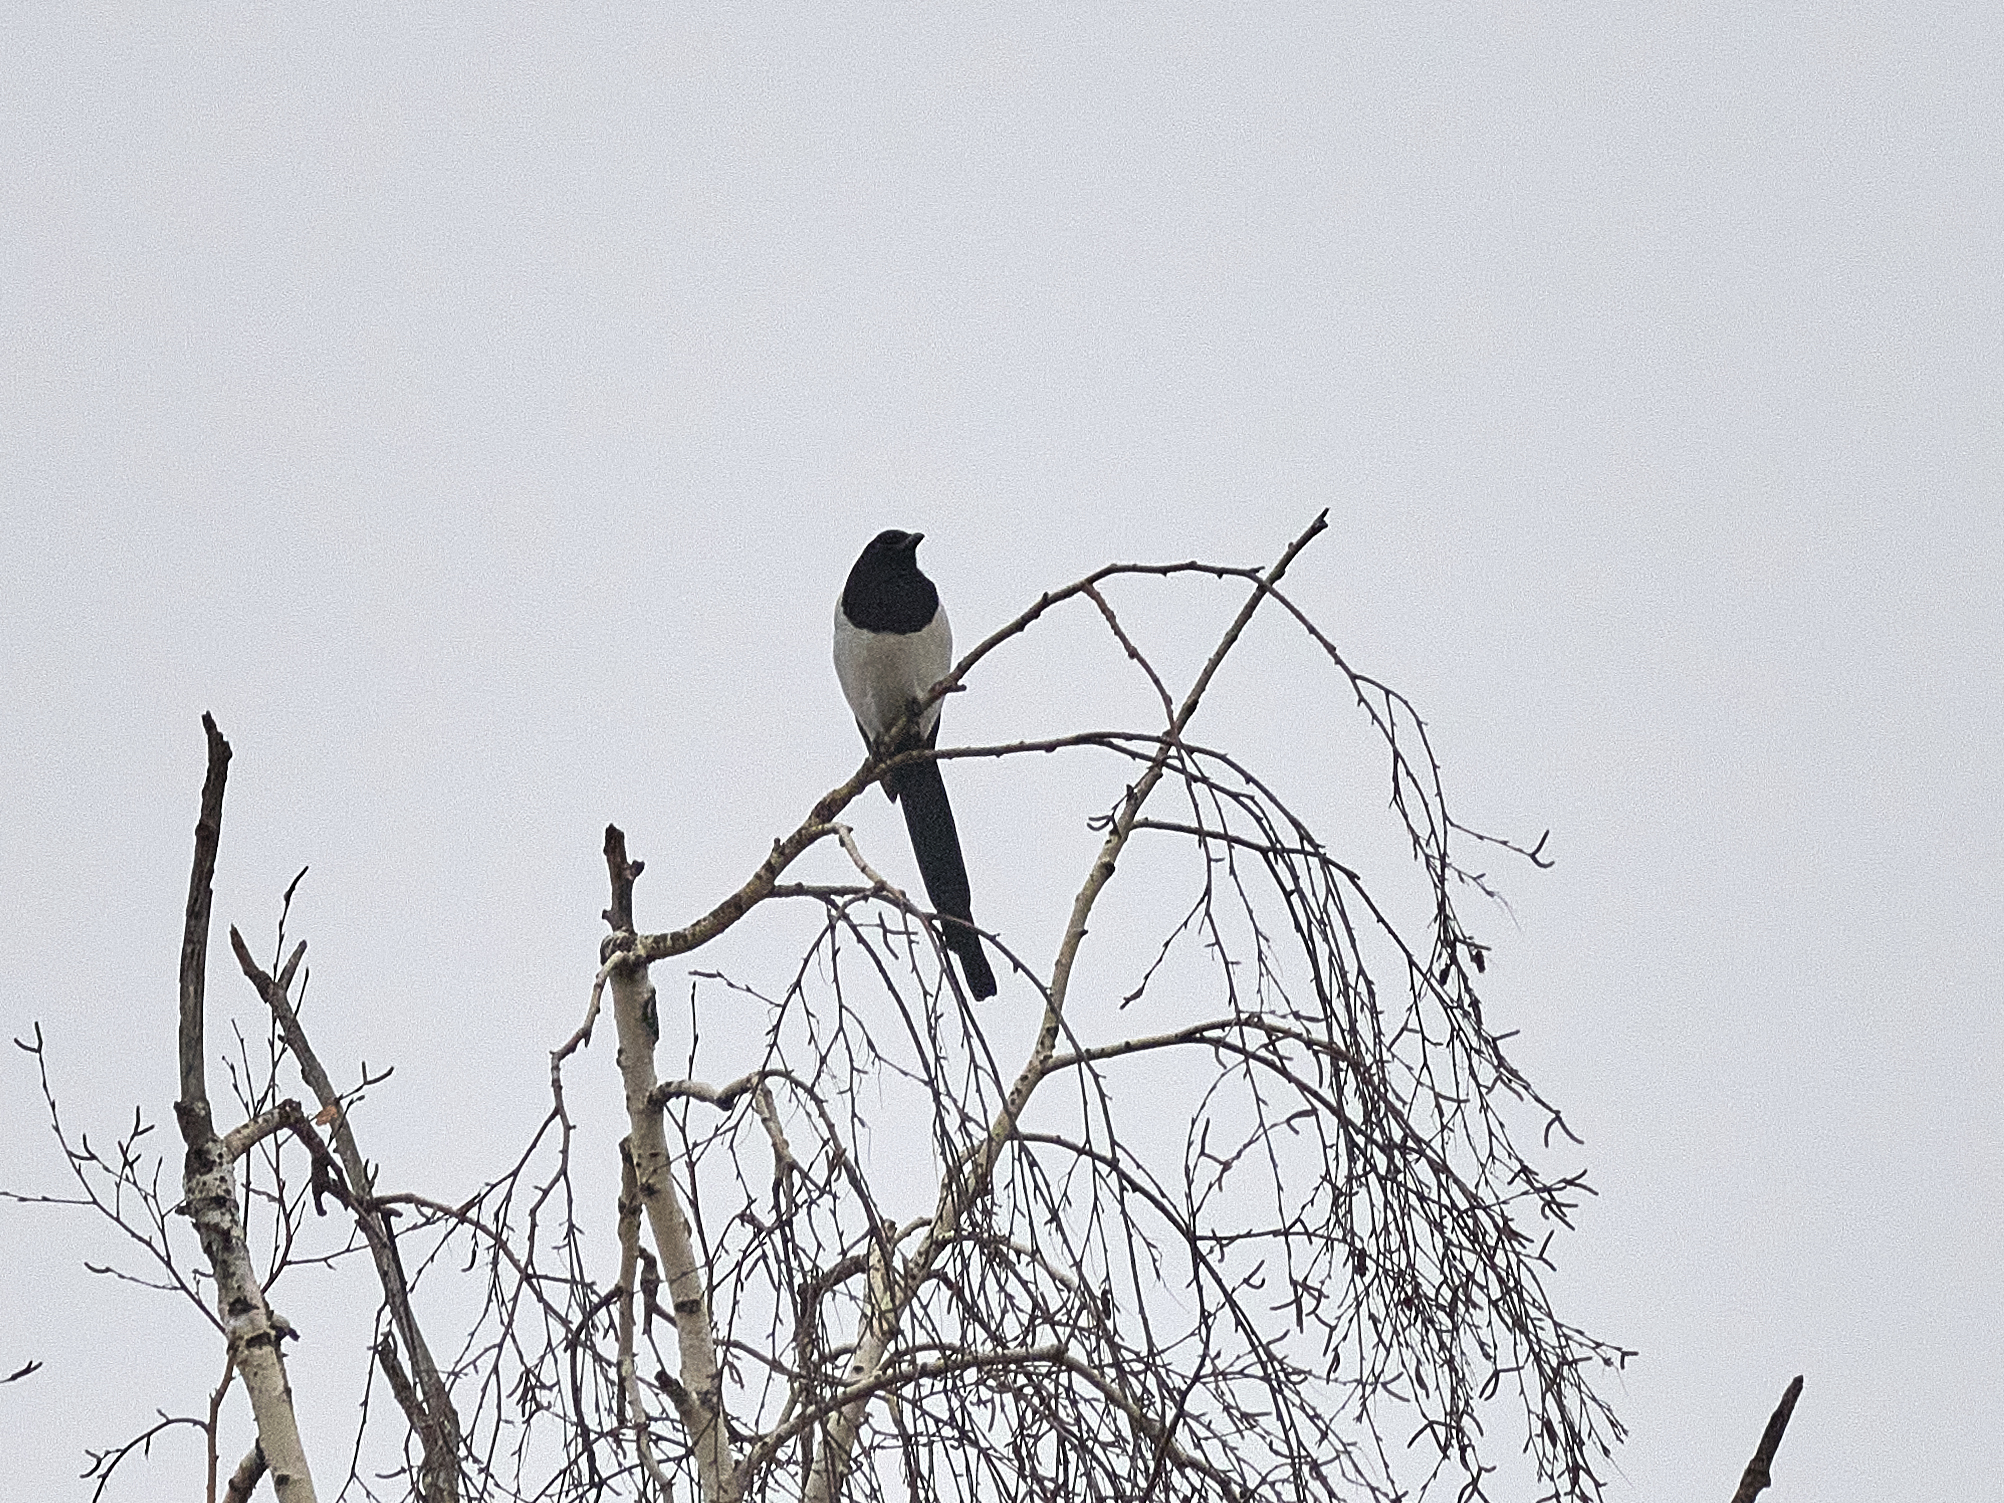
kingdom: Animalia
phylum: Chordata
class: Aves
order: Passeriformes
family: Corvidae
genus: Pica
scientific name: Pica pica
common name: Eurasian magpie
